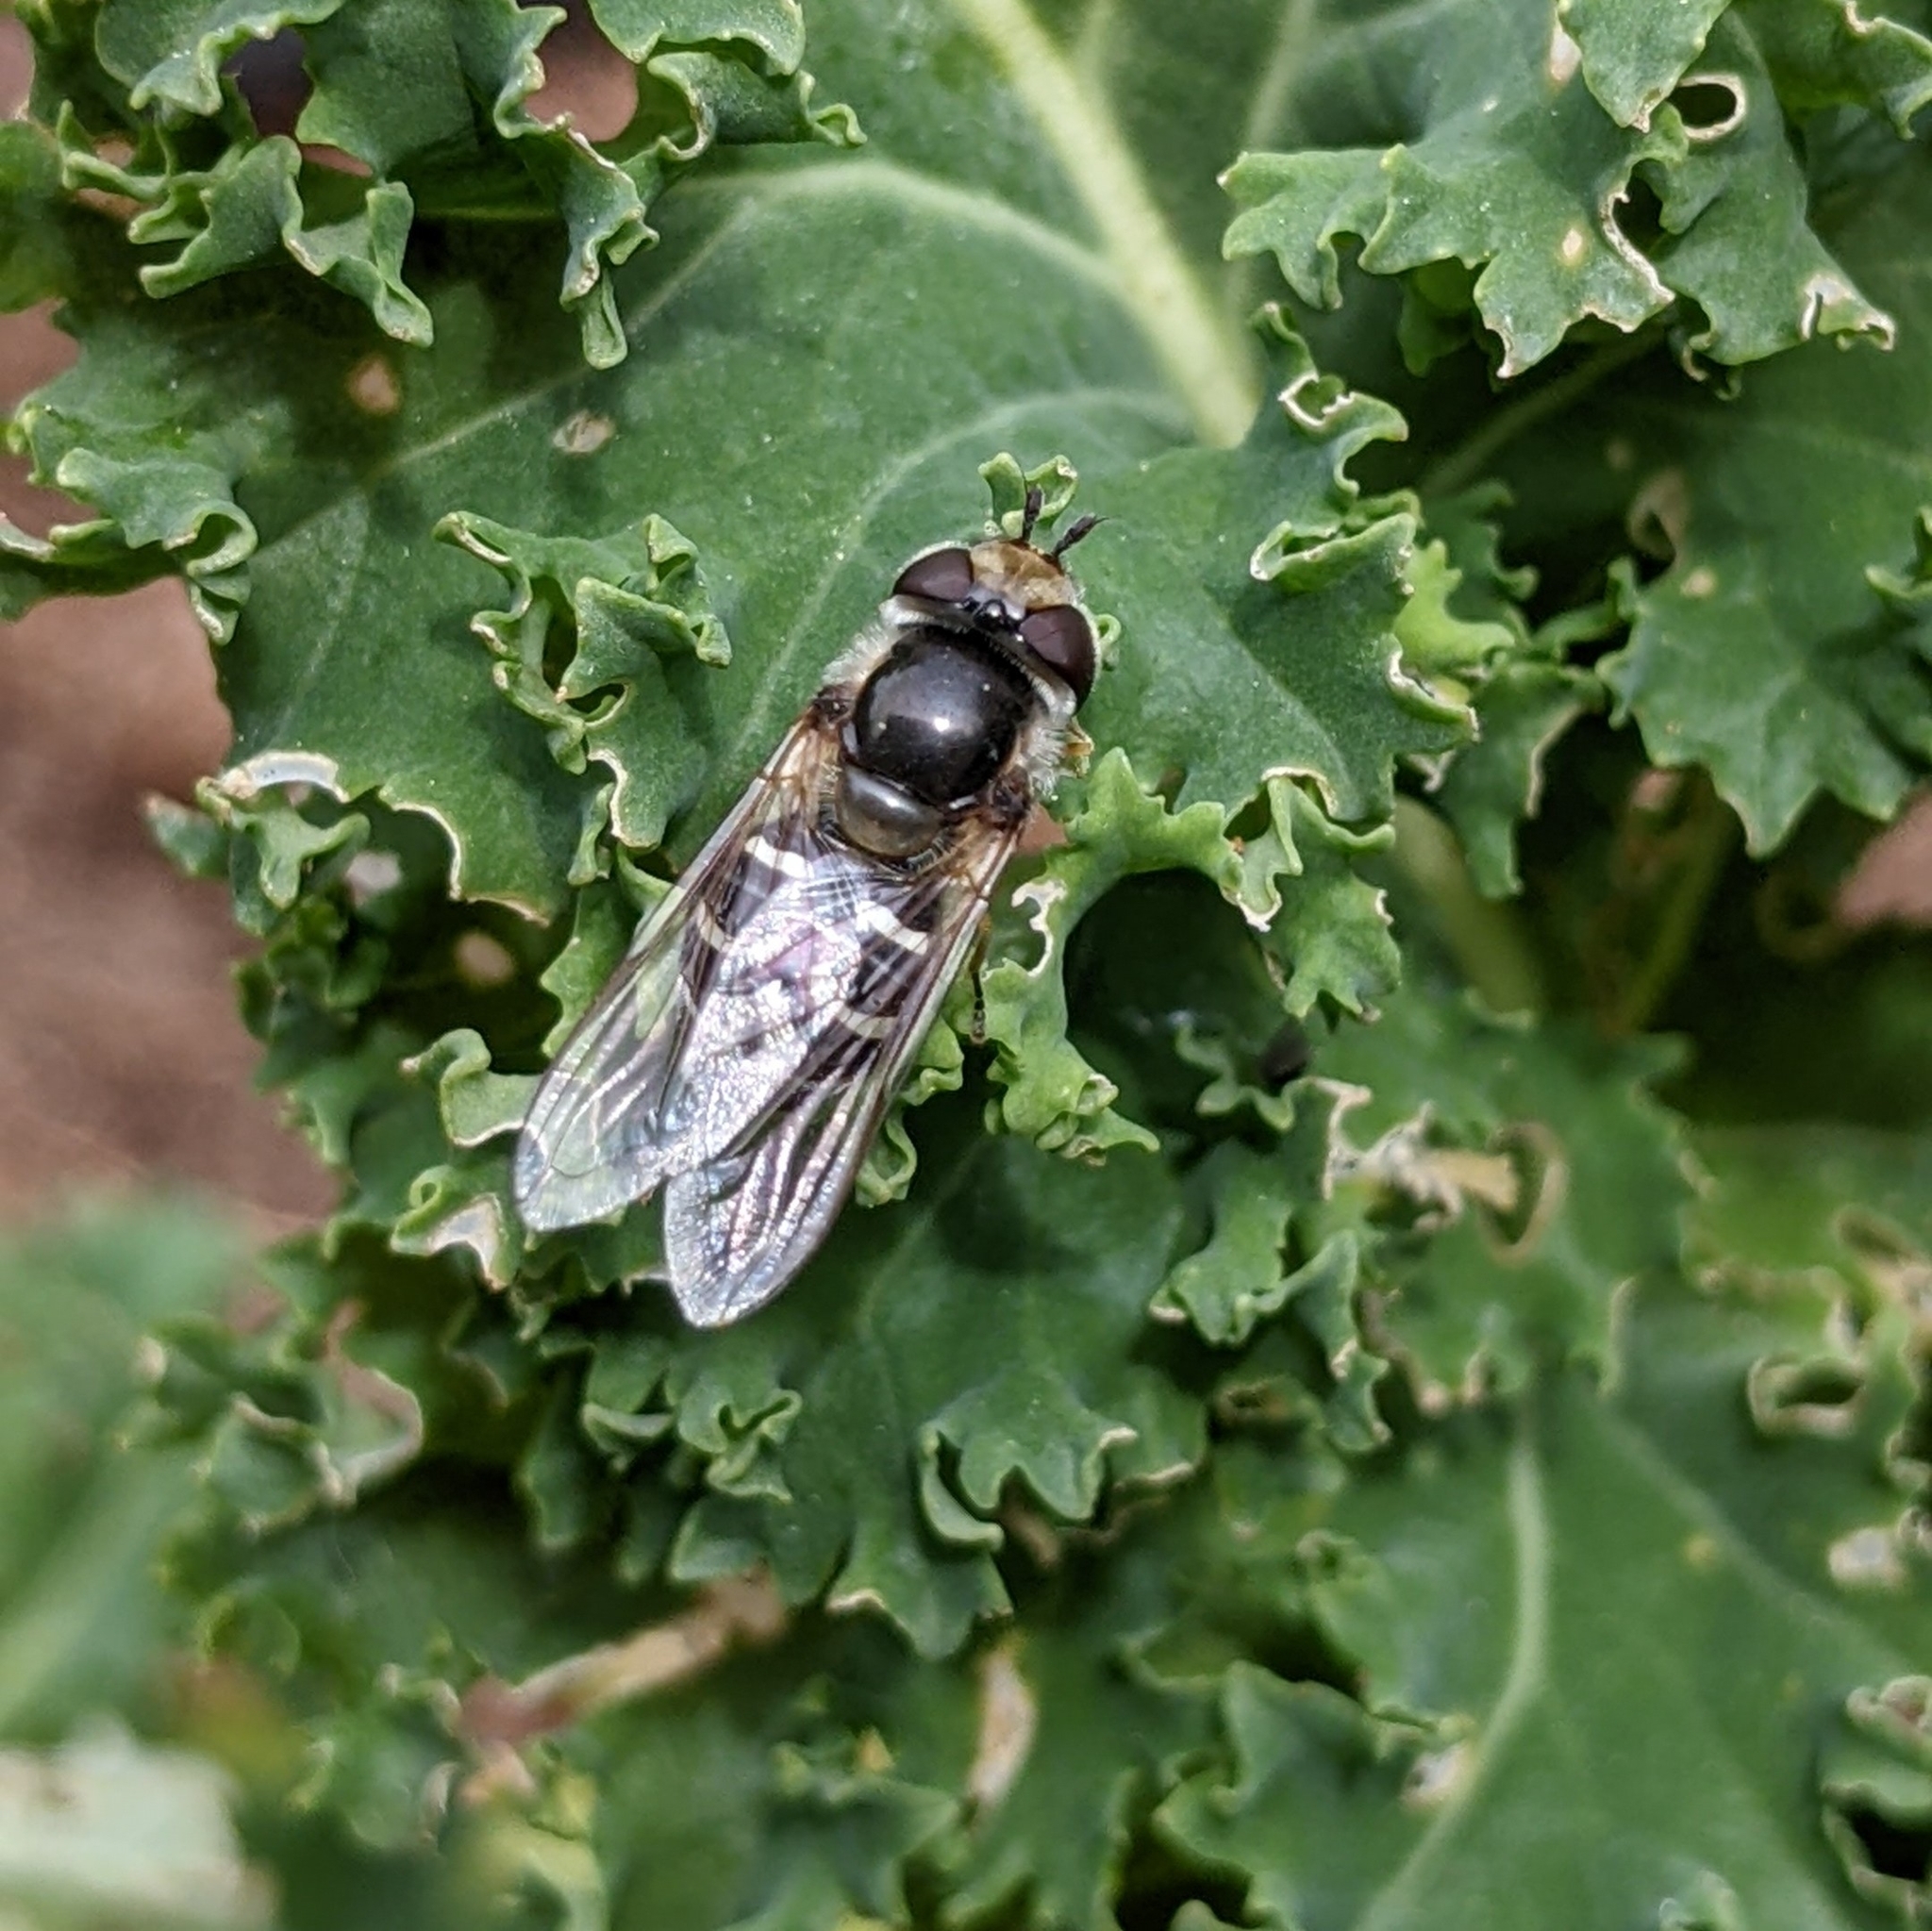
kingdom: Animalia
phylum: Arthropoda
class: Insecta
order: Diptera
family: Syrphidae
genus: Scaeva
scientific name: Scaeva affinis
